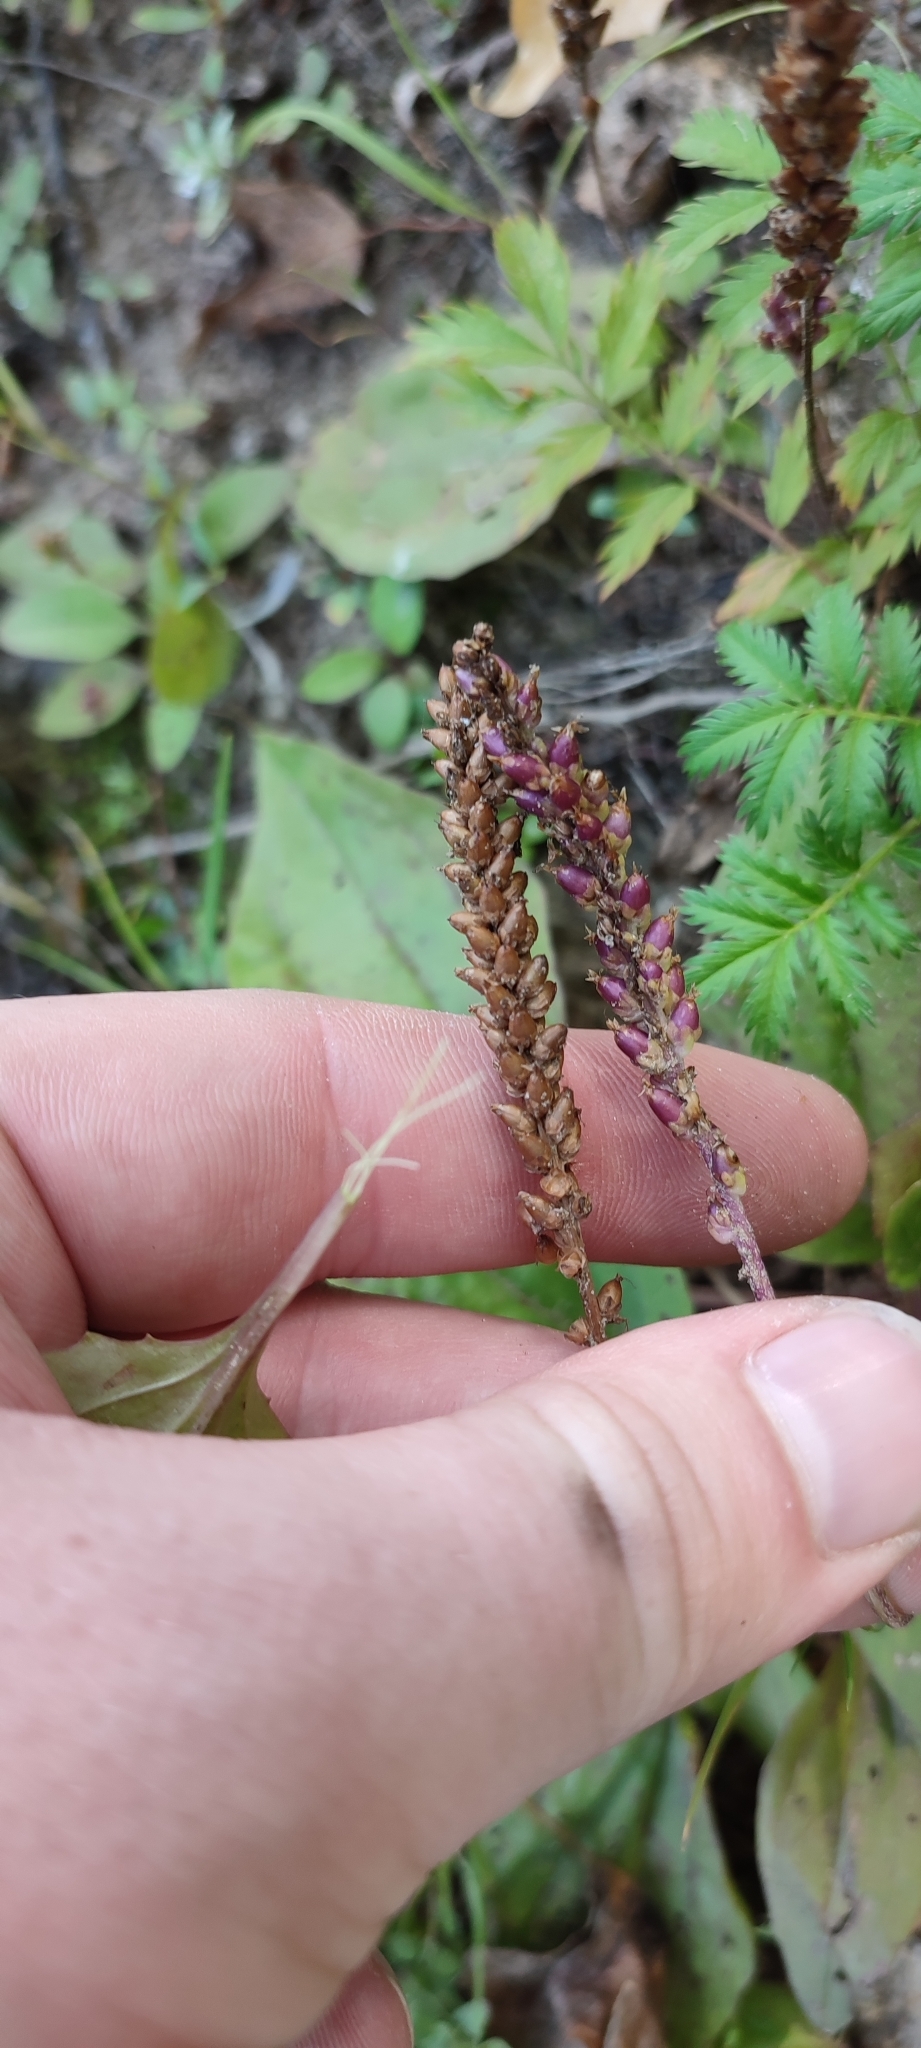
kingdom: Plantae
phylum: Tracheophyta
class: Magnoliopsida
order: Lamiales
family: Plantaginaceae
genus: Plantago
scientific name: Plantago uliginosa
